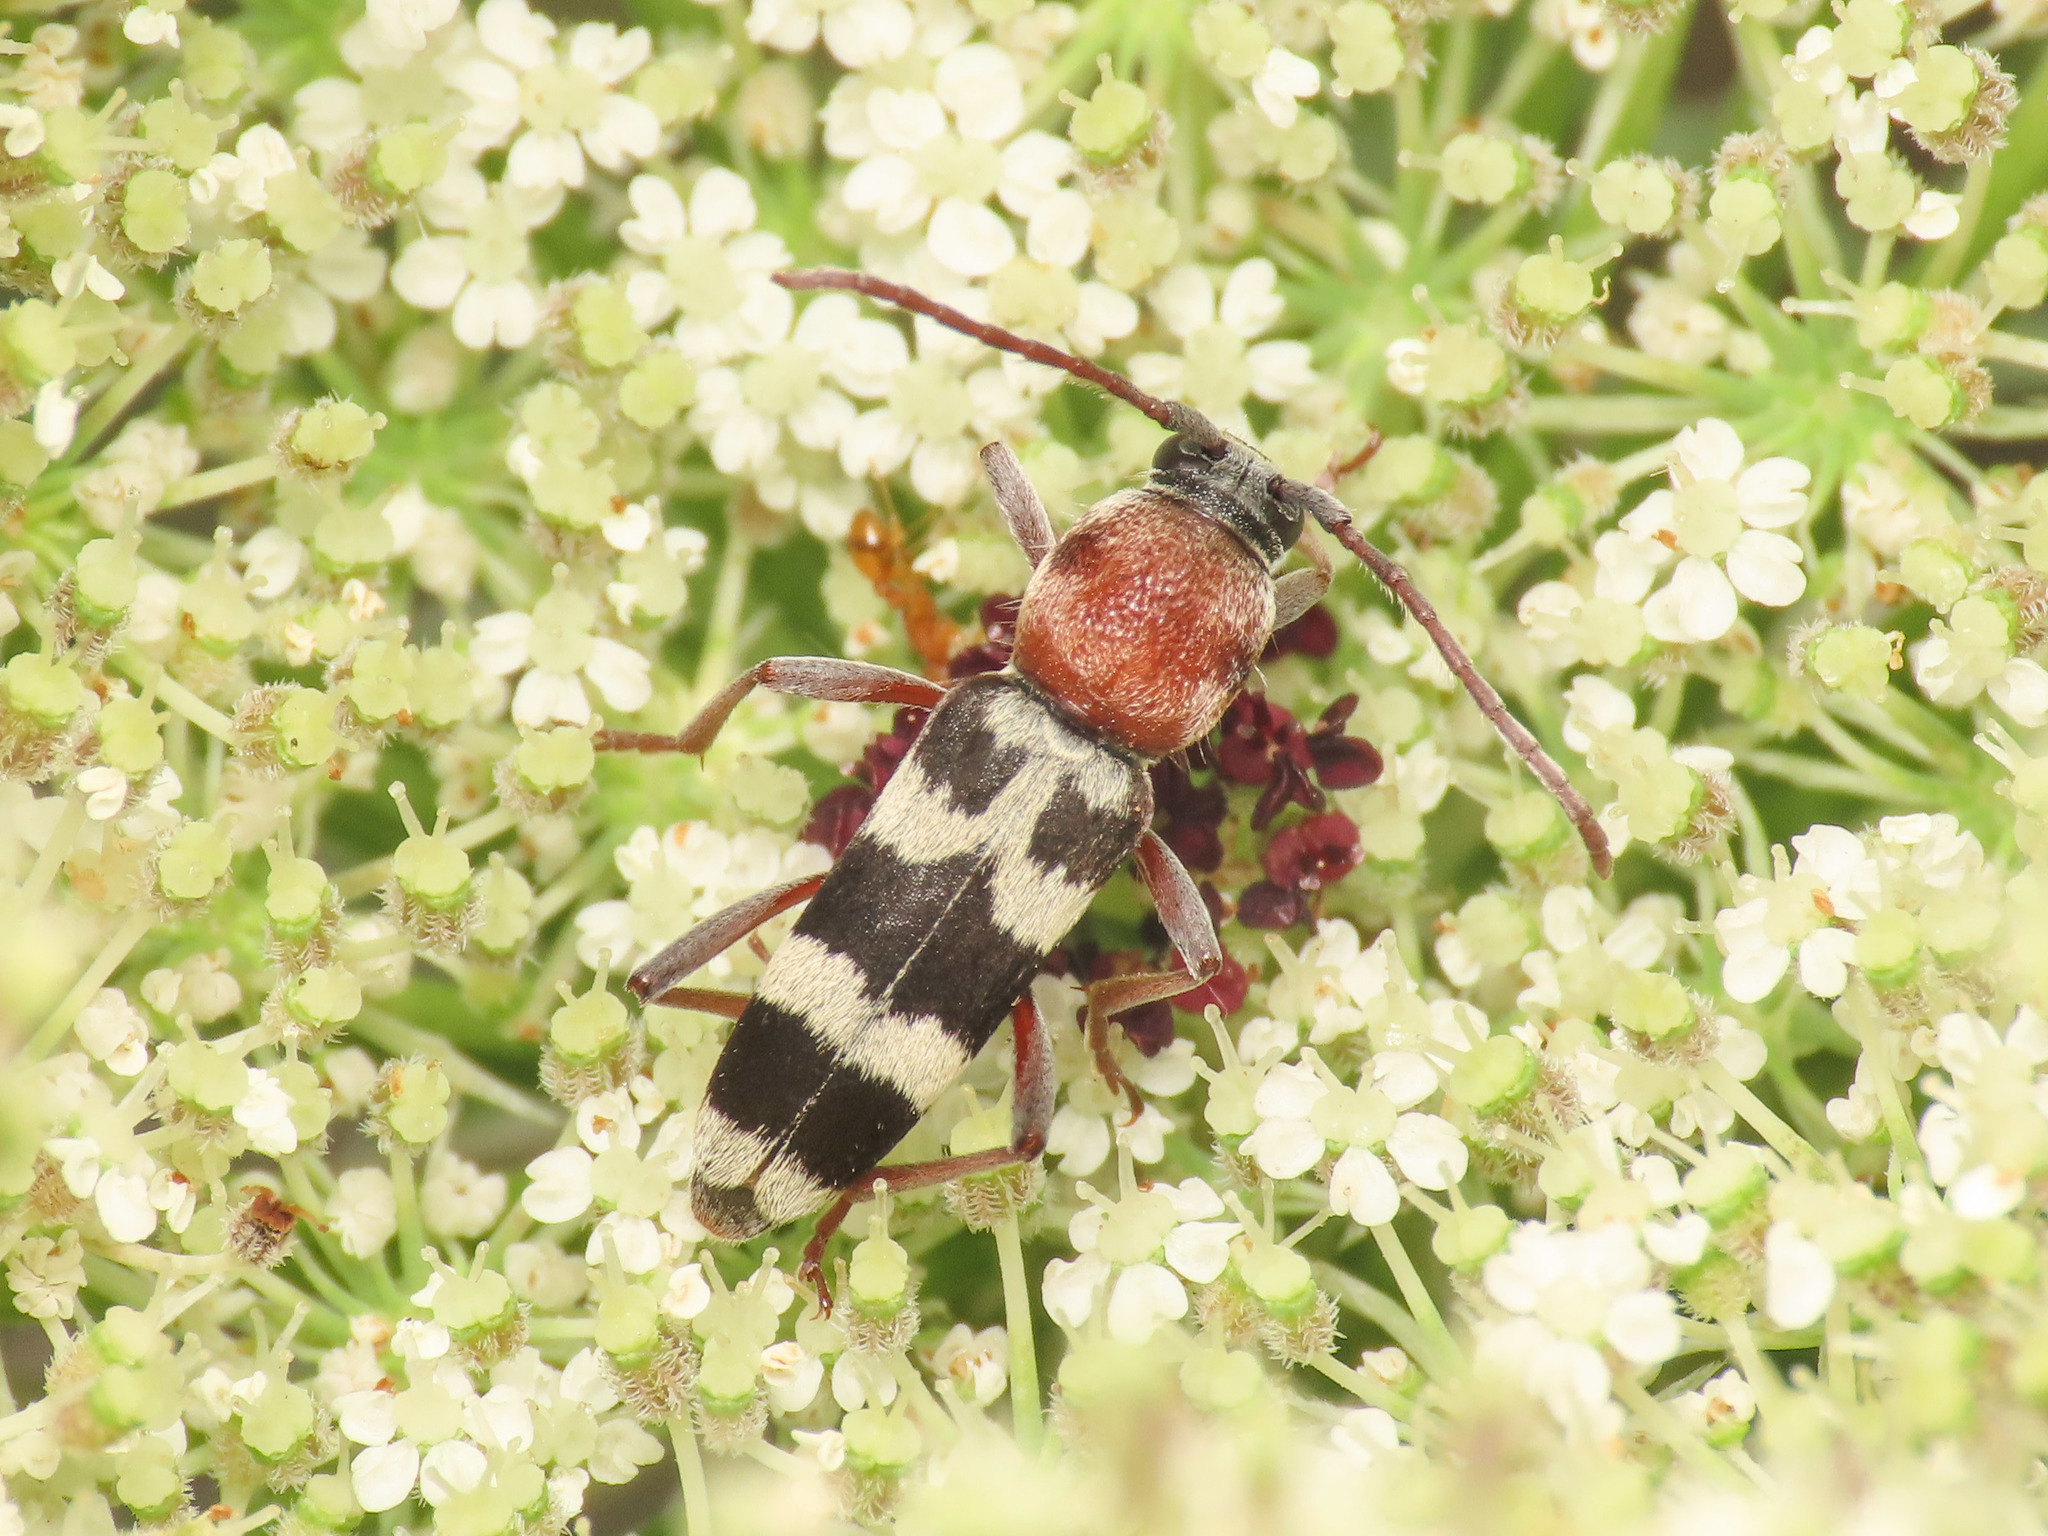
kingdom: Animalia
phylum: Arthropoda
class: Insecta
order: Coleoptera
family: Cerambycidae
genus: Chlorophorus
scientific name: Chlorophorus trifasciatus
